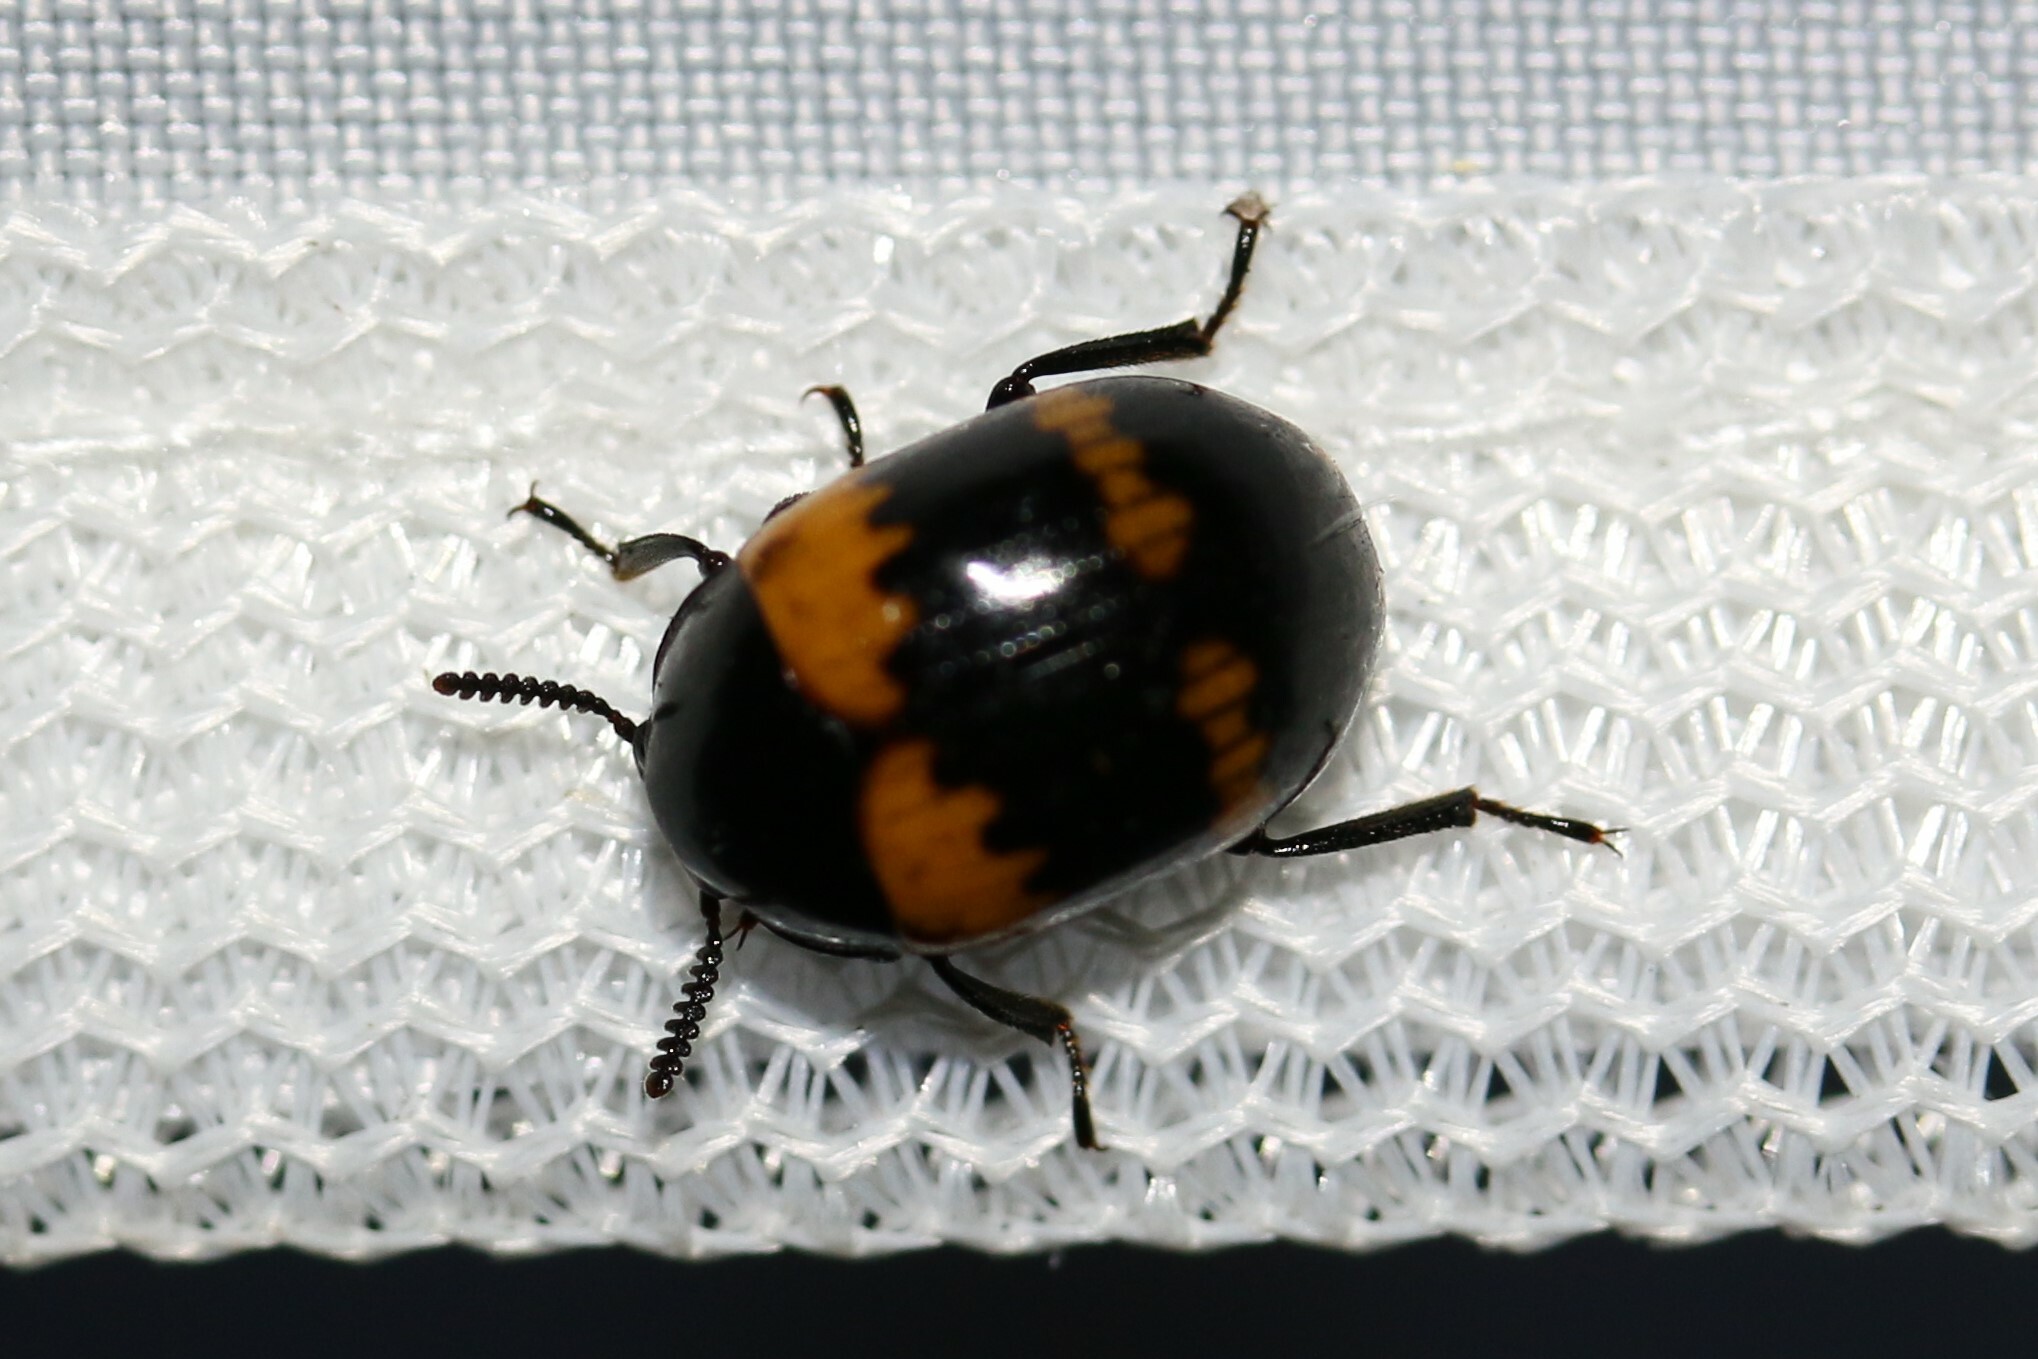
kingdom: Animalia
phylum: Arthropoda
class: Insecta
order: Coleoptera
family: Tenebrionidae
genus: Diaperis
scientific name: Diaperis boleti
